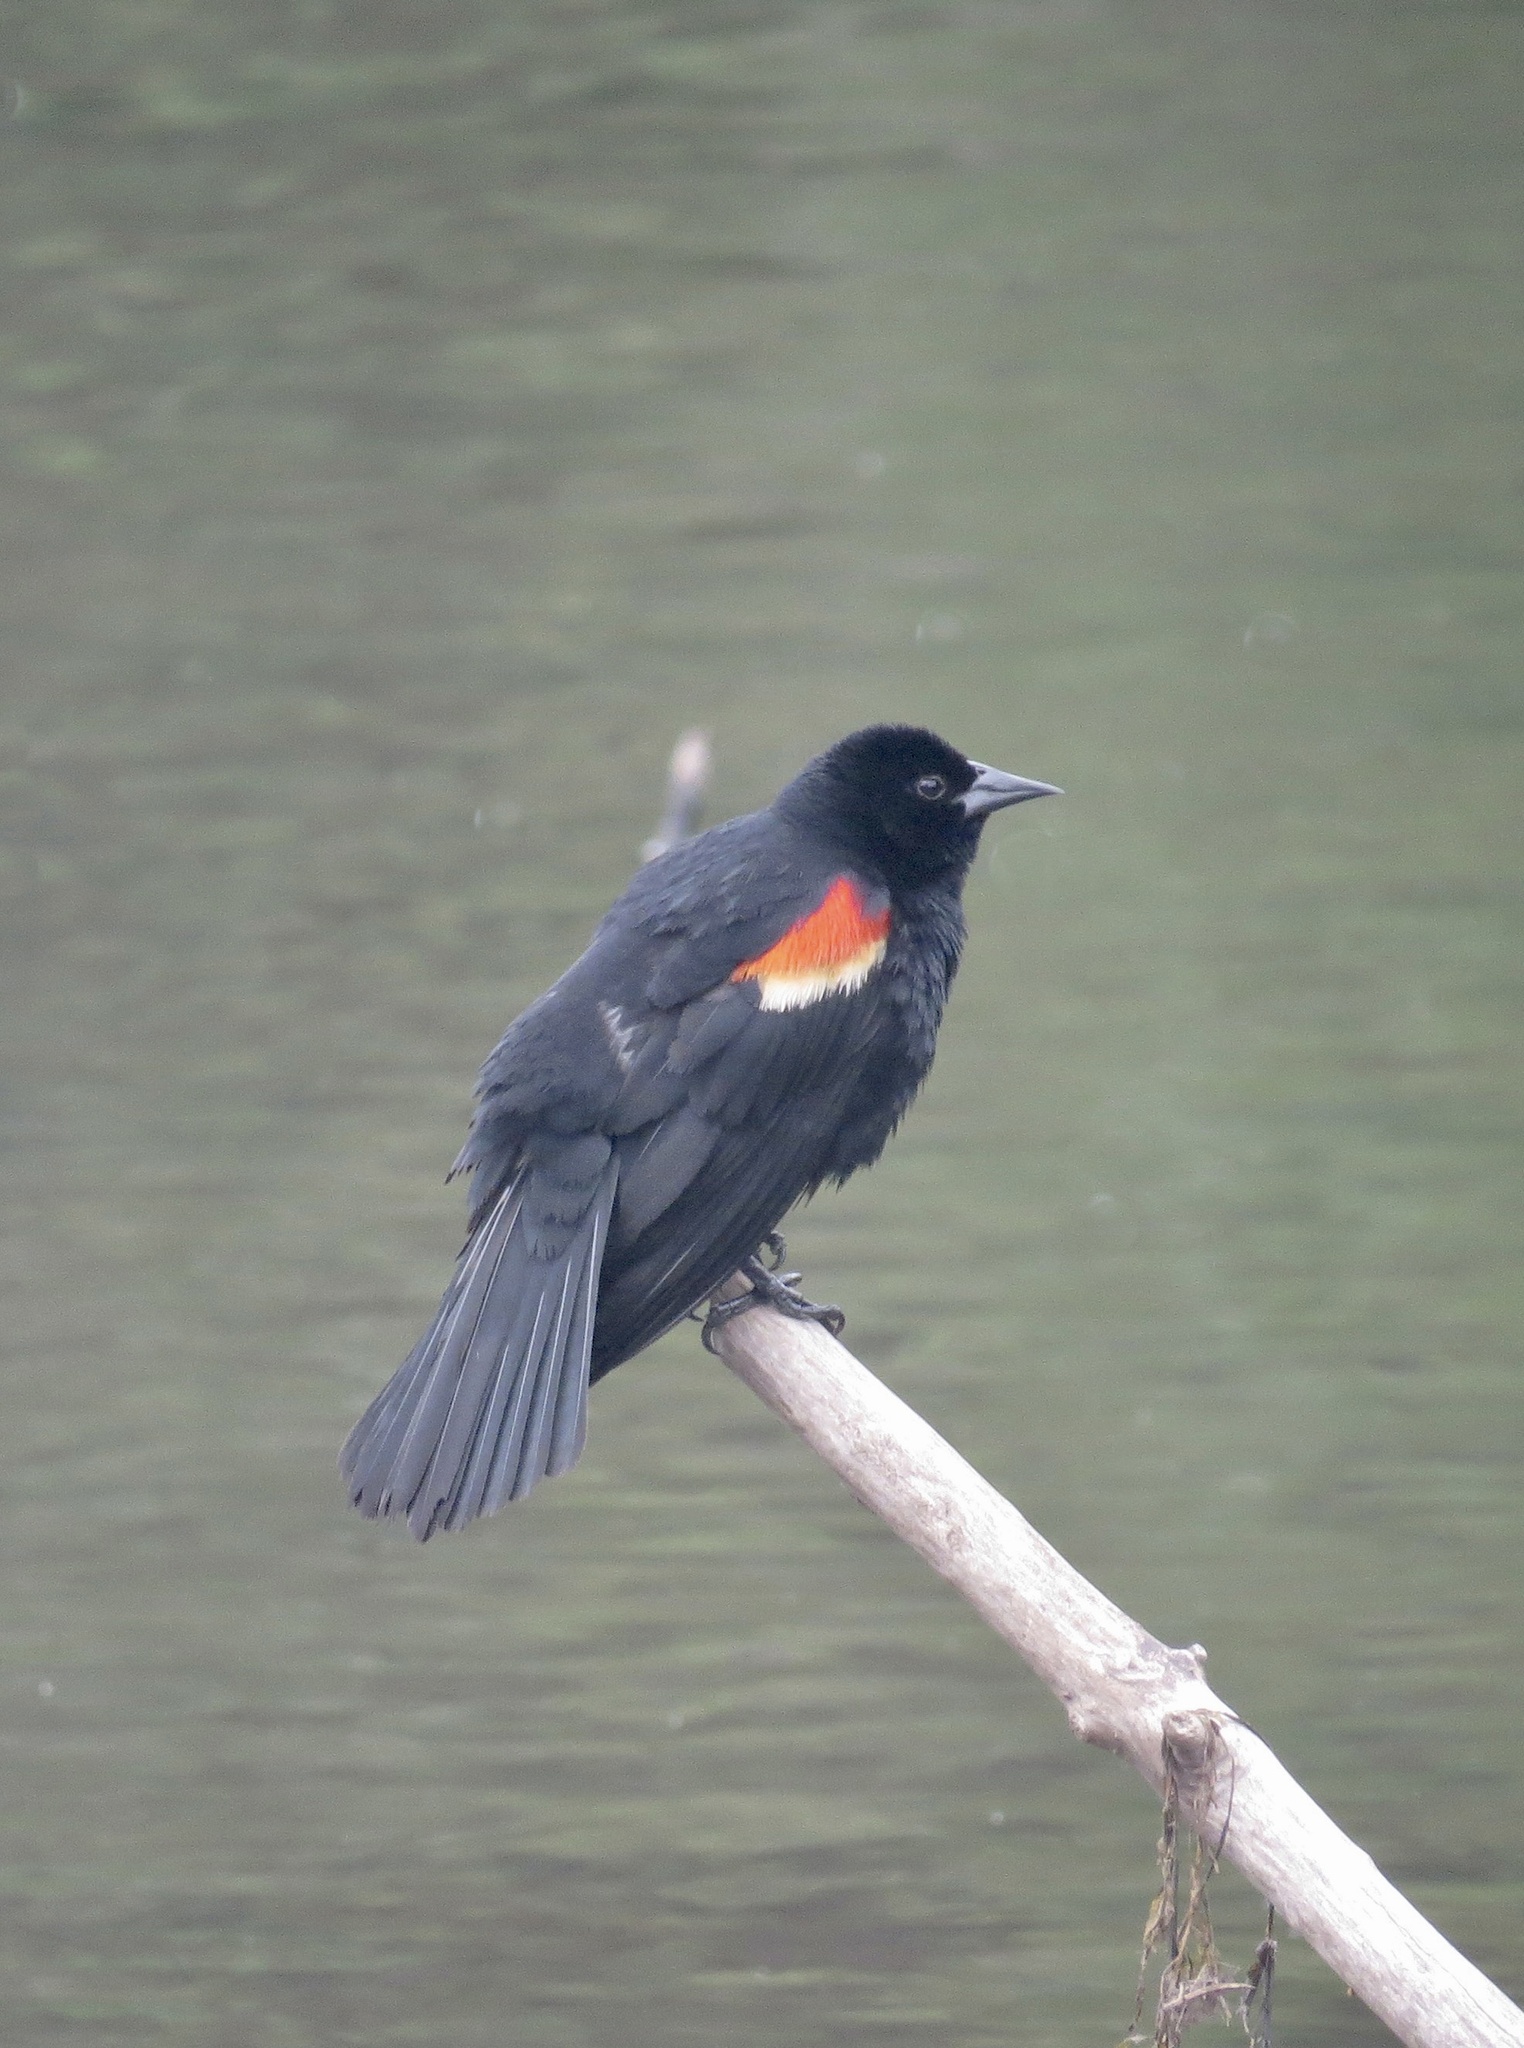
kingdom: Animalia
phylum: Chordata
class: Aves
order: Passeriformes
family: Icteridae
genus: Agelaius
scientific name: Agelaius phoeniceus
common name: Red-winged blackbird
